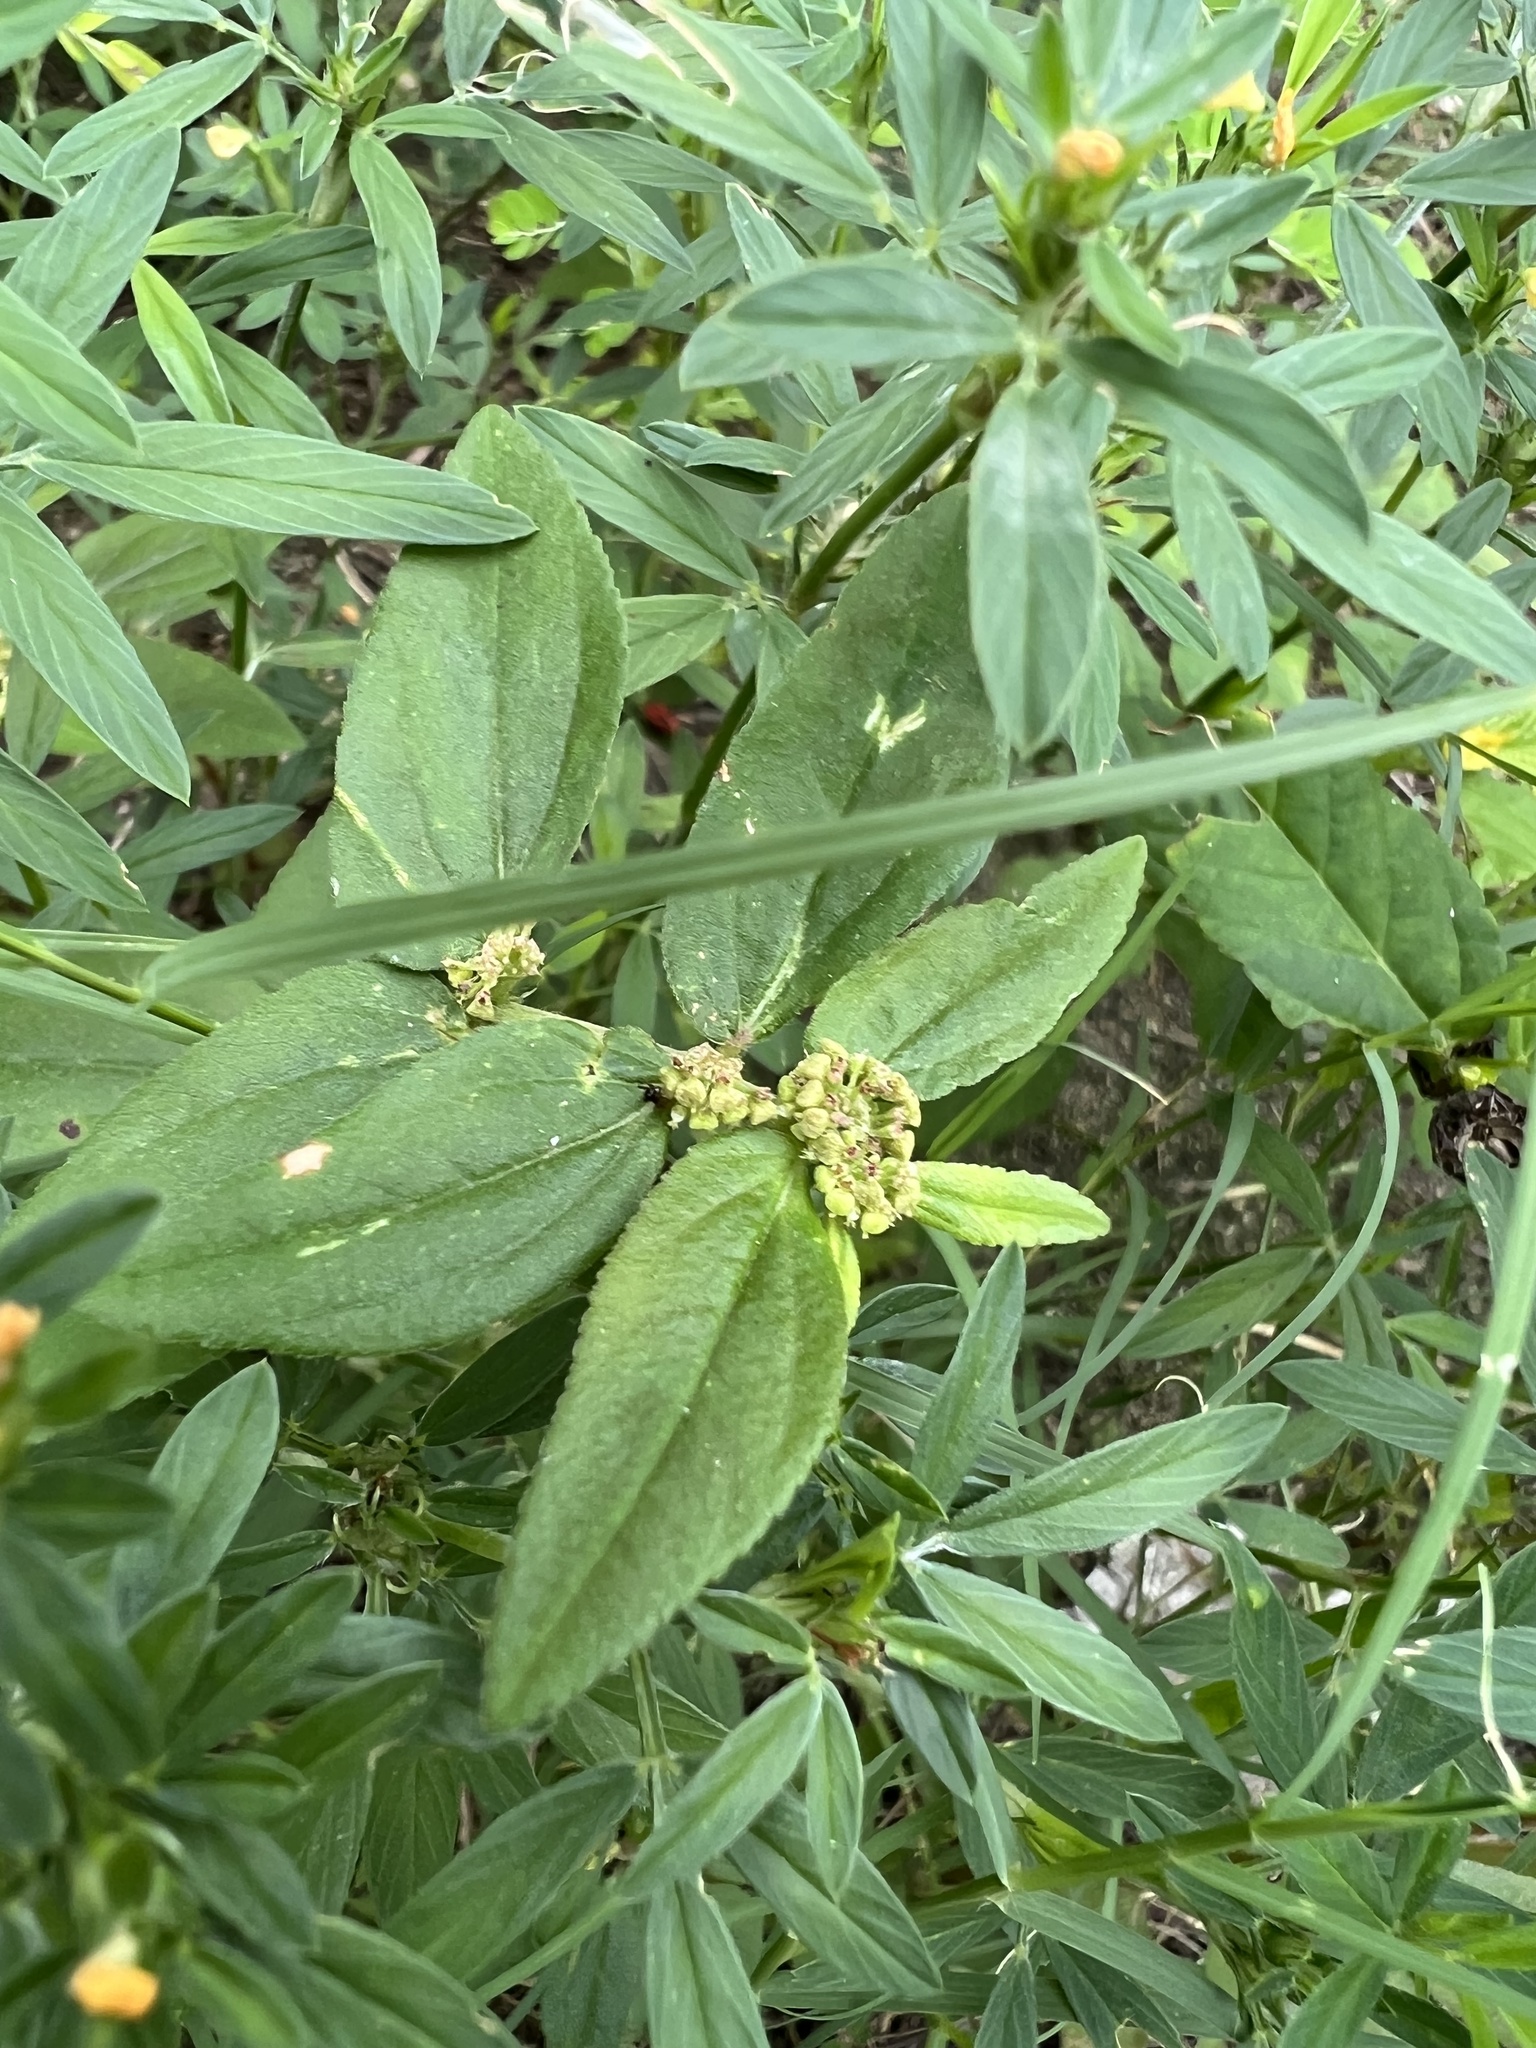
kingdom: Plantae
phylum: Tracheophyta
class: Magnoliopsida
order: Malpighiales
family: Euphorbiaceae
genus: Euphorbia
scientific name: Euphorbia hirta
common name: Pillpod sandmat
